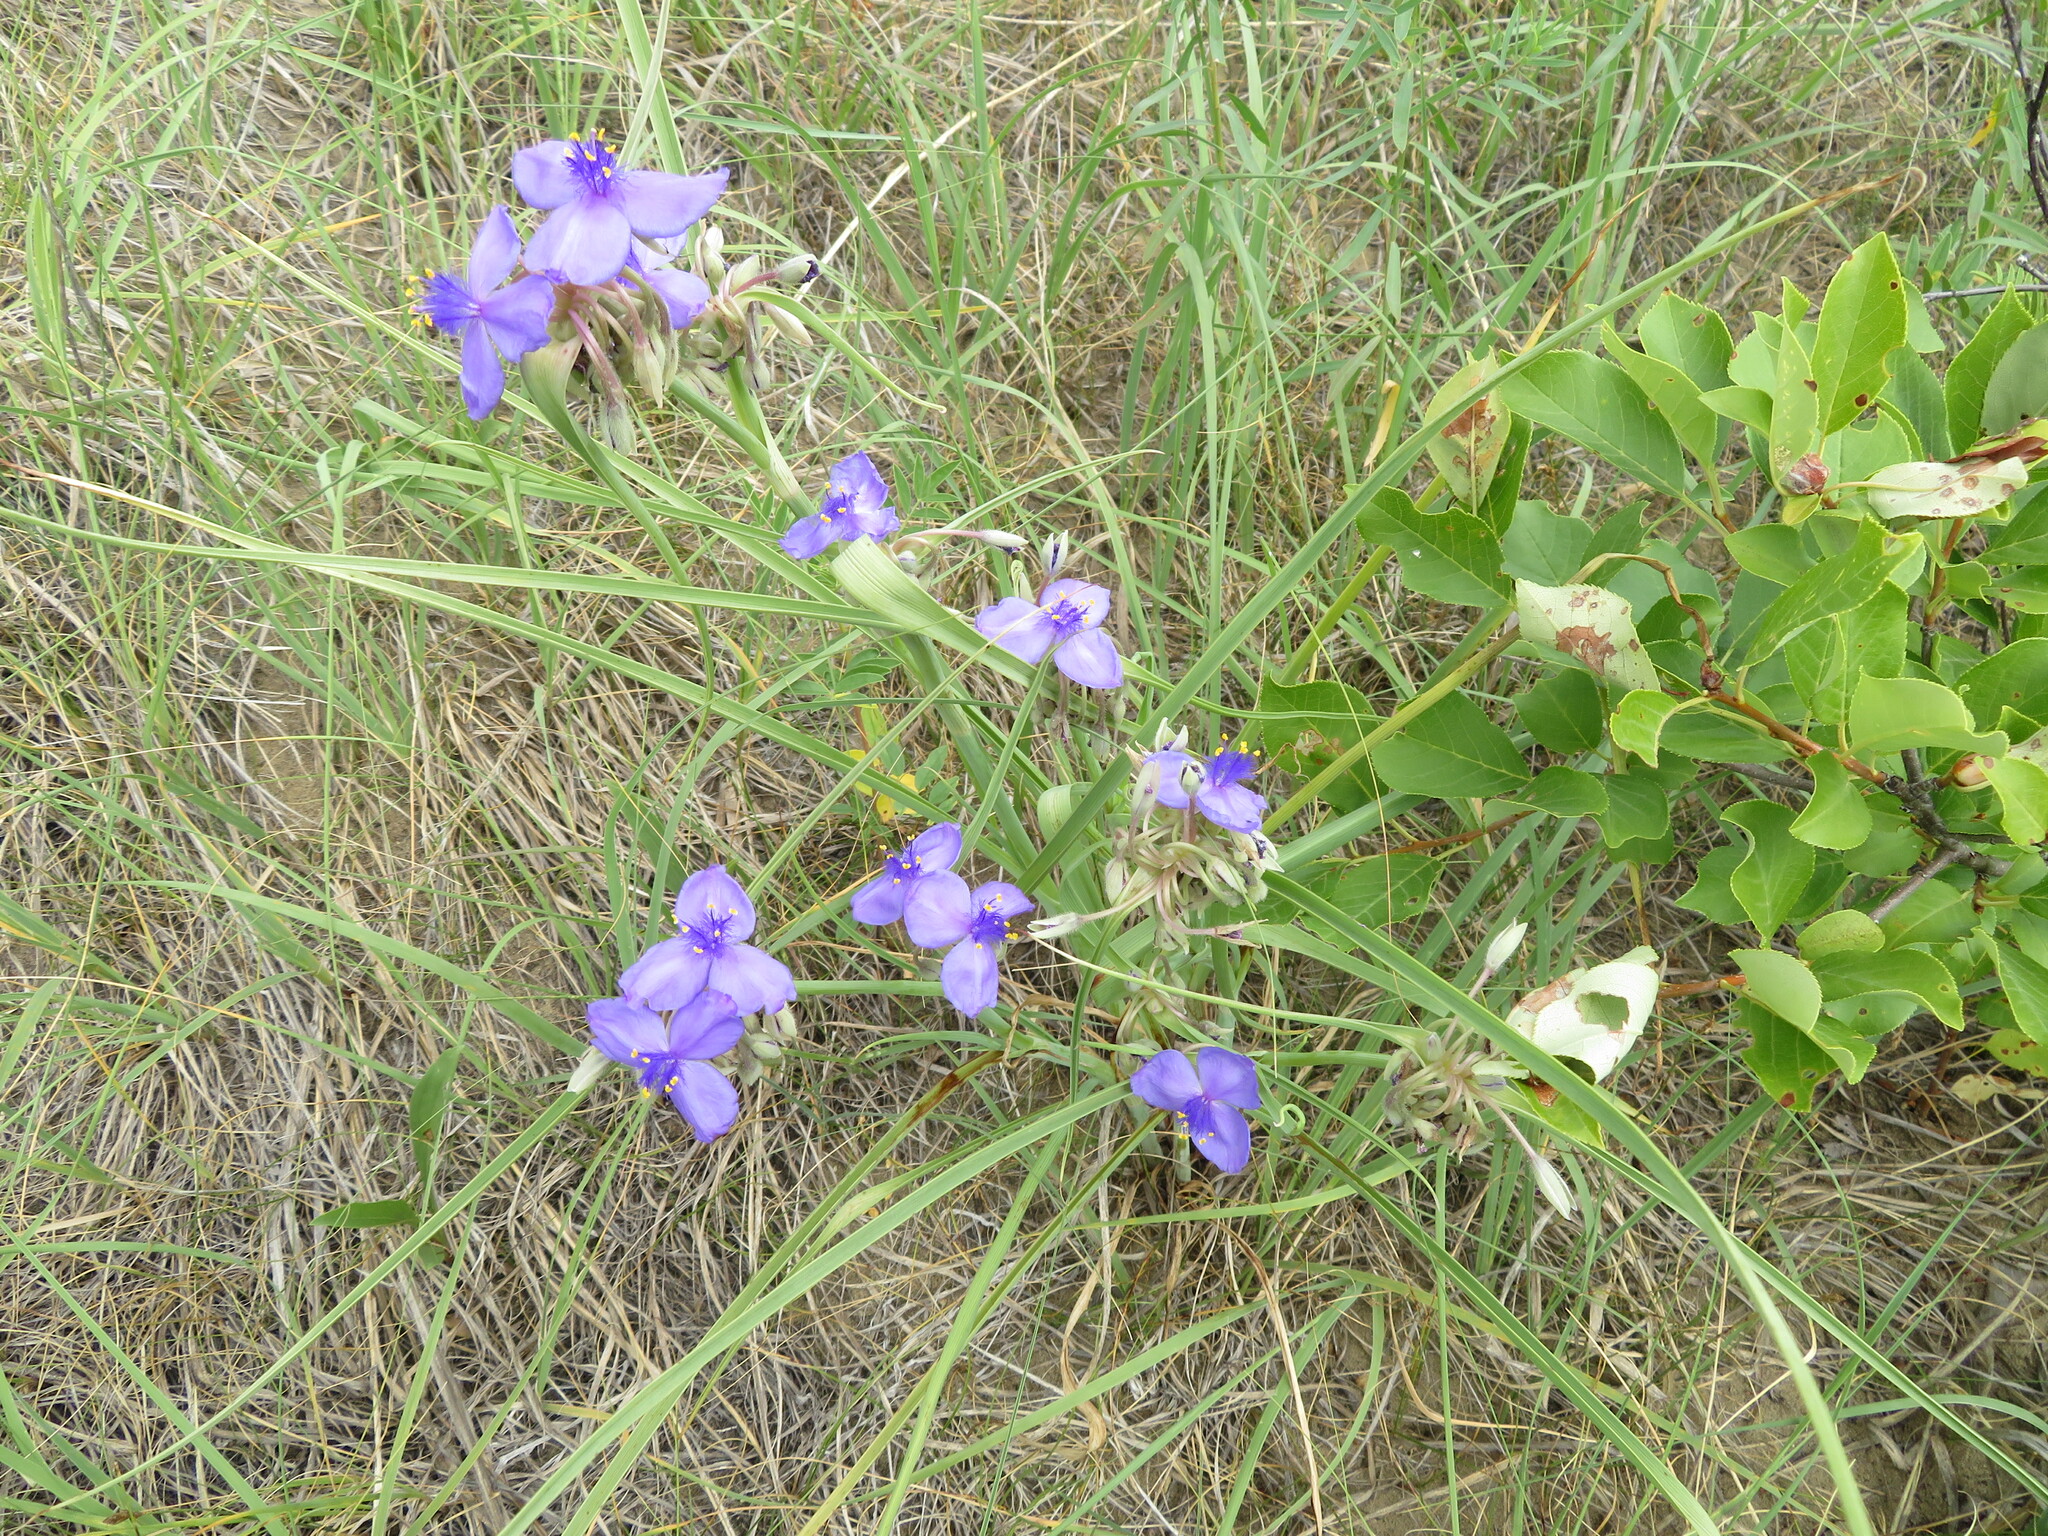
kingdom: Plantae
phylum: Tracheophyta
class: Liliopsida
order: Commelinales
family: Commelinaceae
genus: Tradescantia
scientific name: Tradescantia occidentalis
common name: Prairie spiderwort
